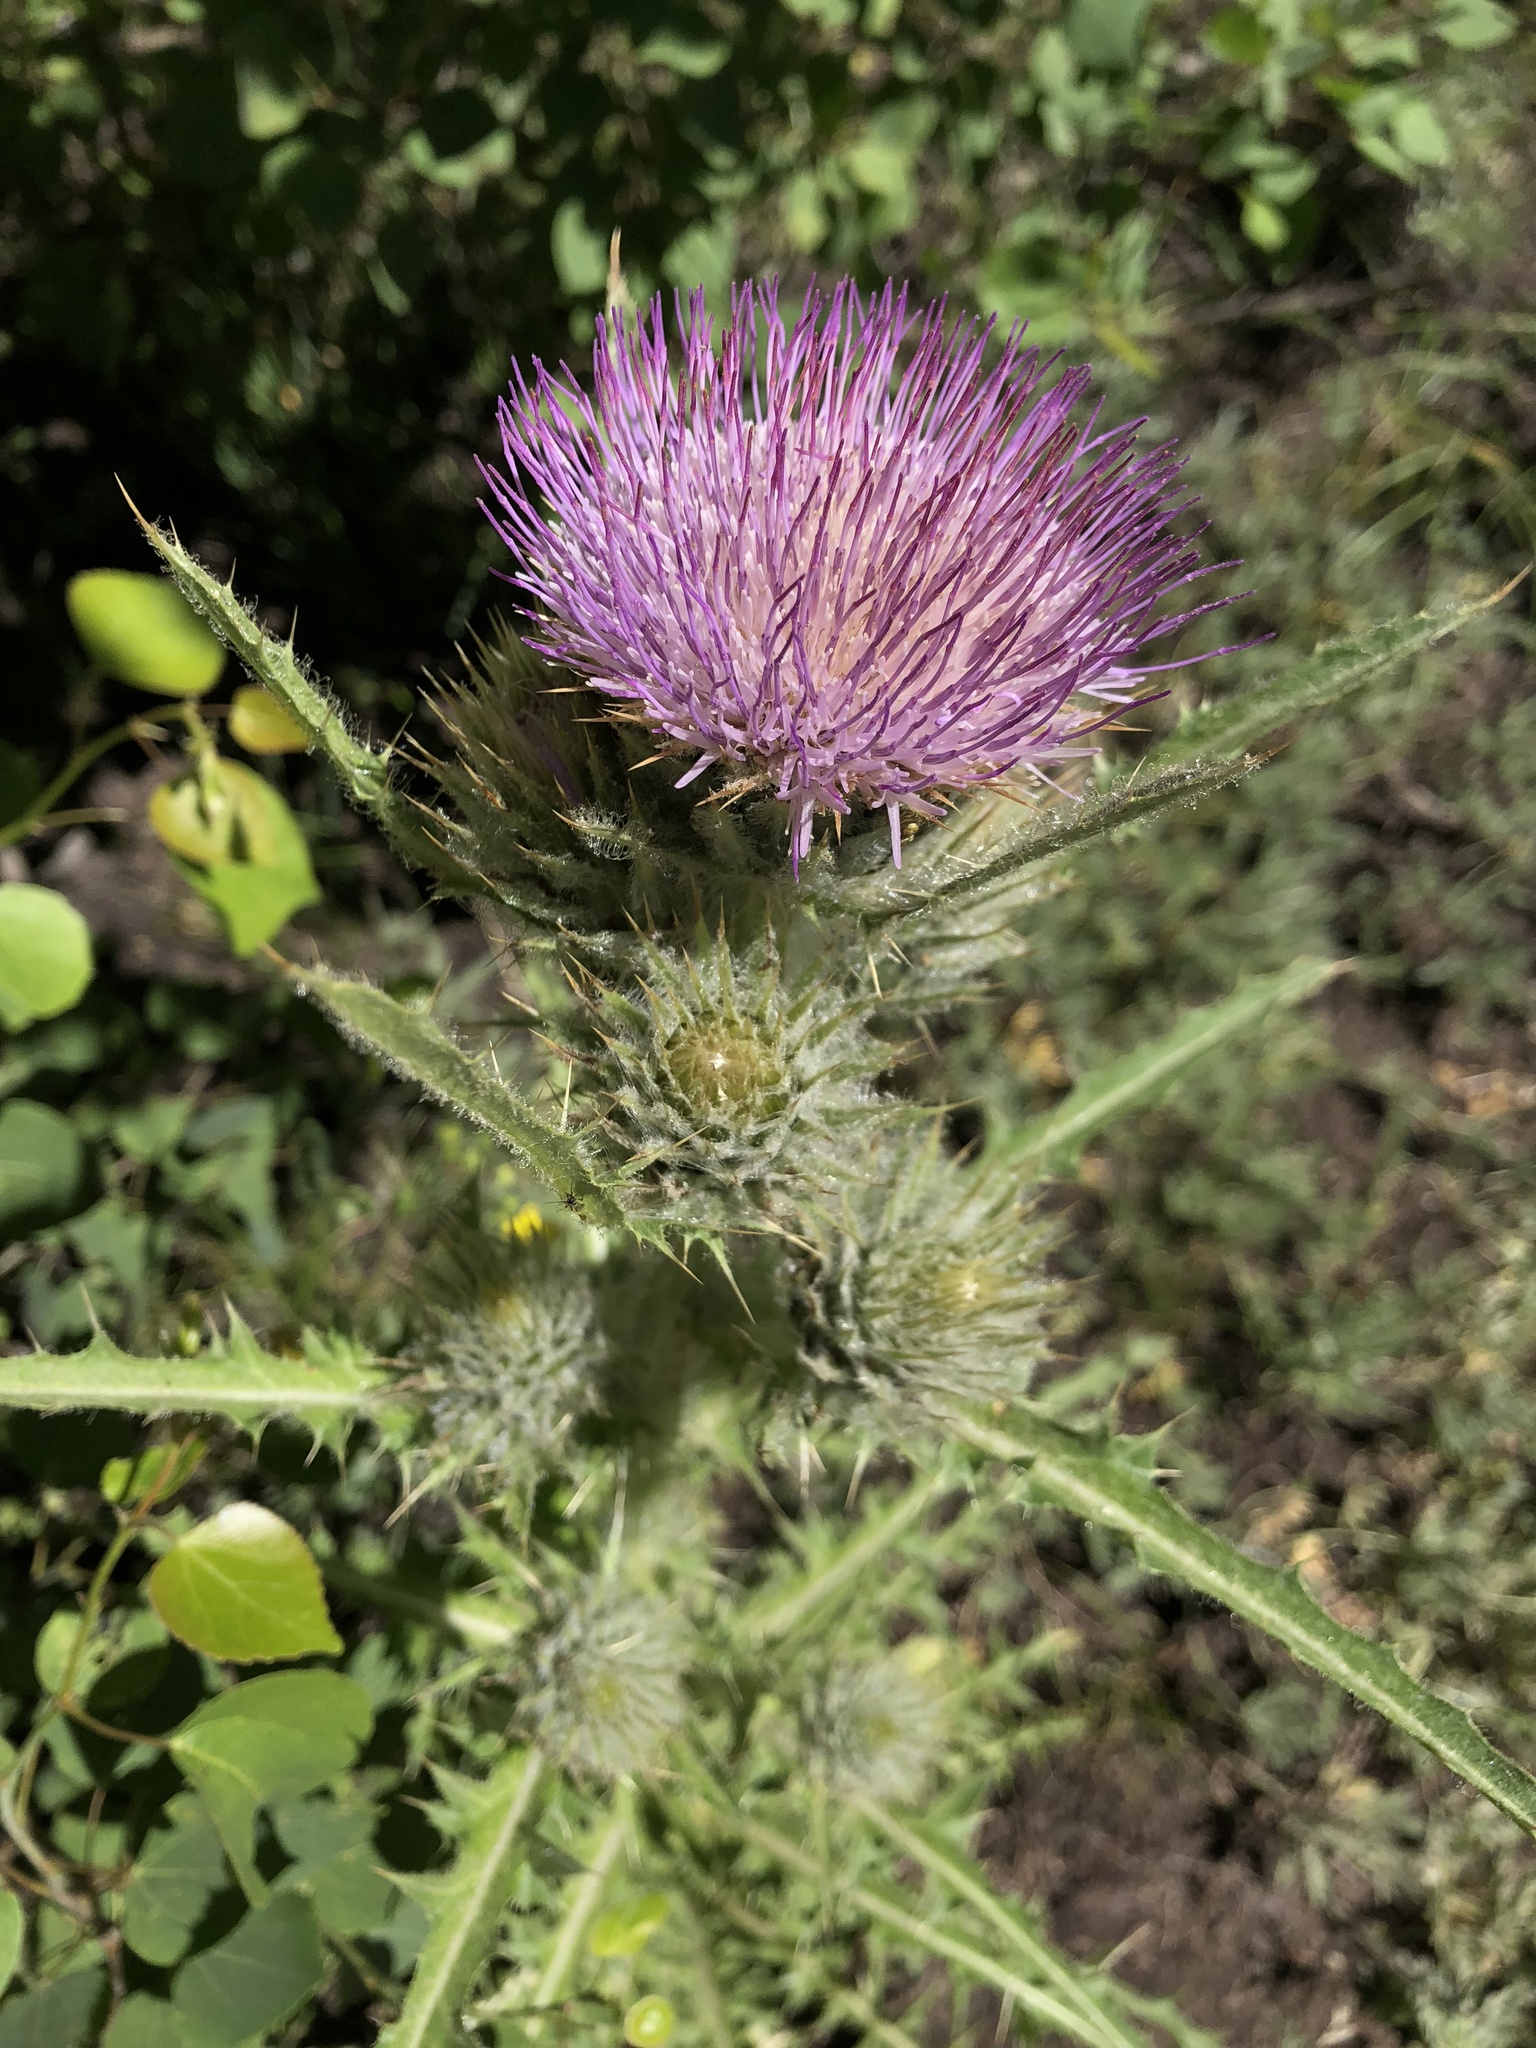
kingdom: Plantae
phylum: Tracheophyta
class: Magnoliopsida
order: Asterales
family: Asteraceae
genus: Cirsium
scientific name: Cirsium peckii
